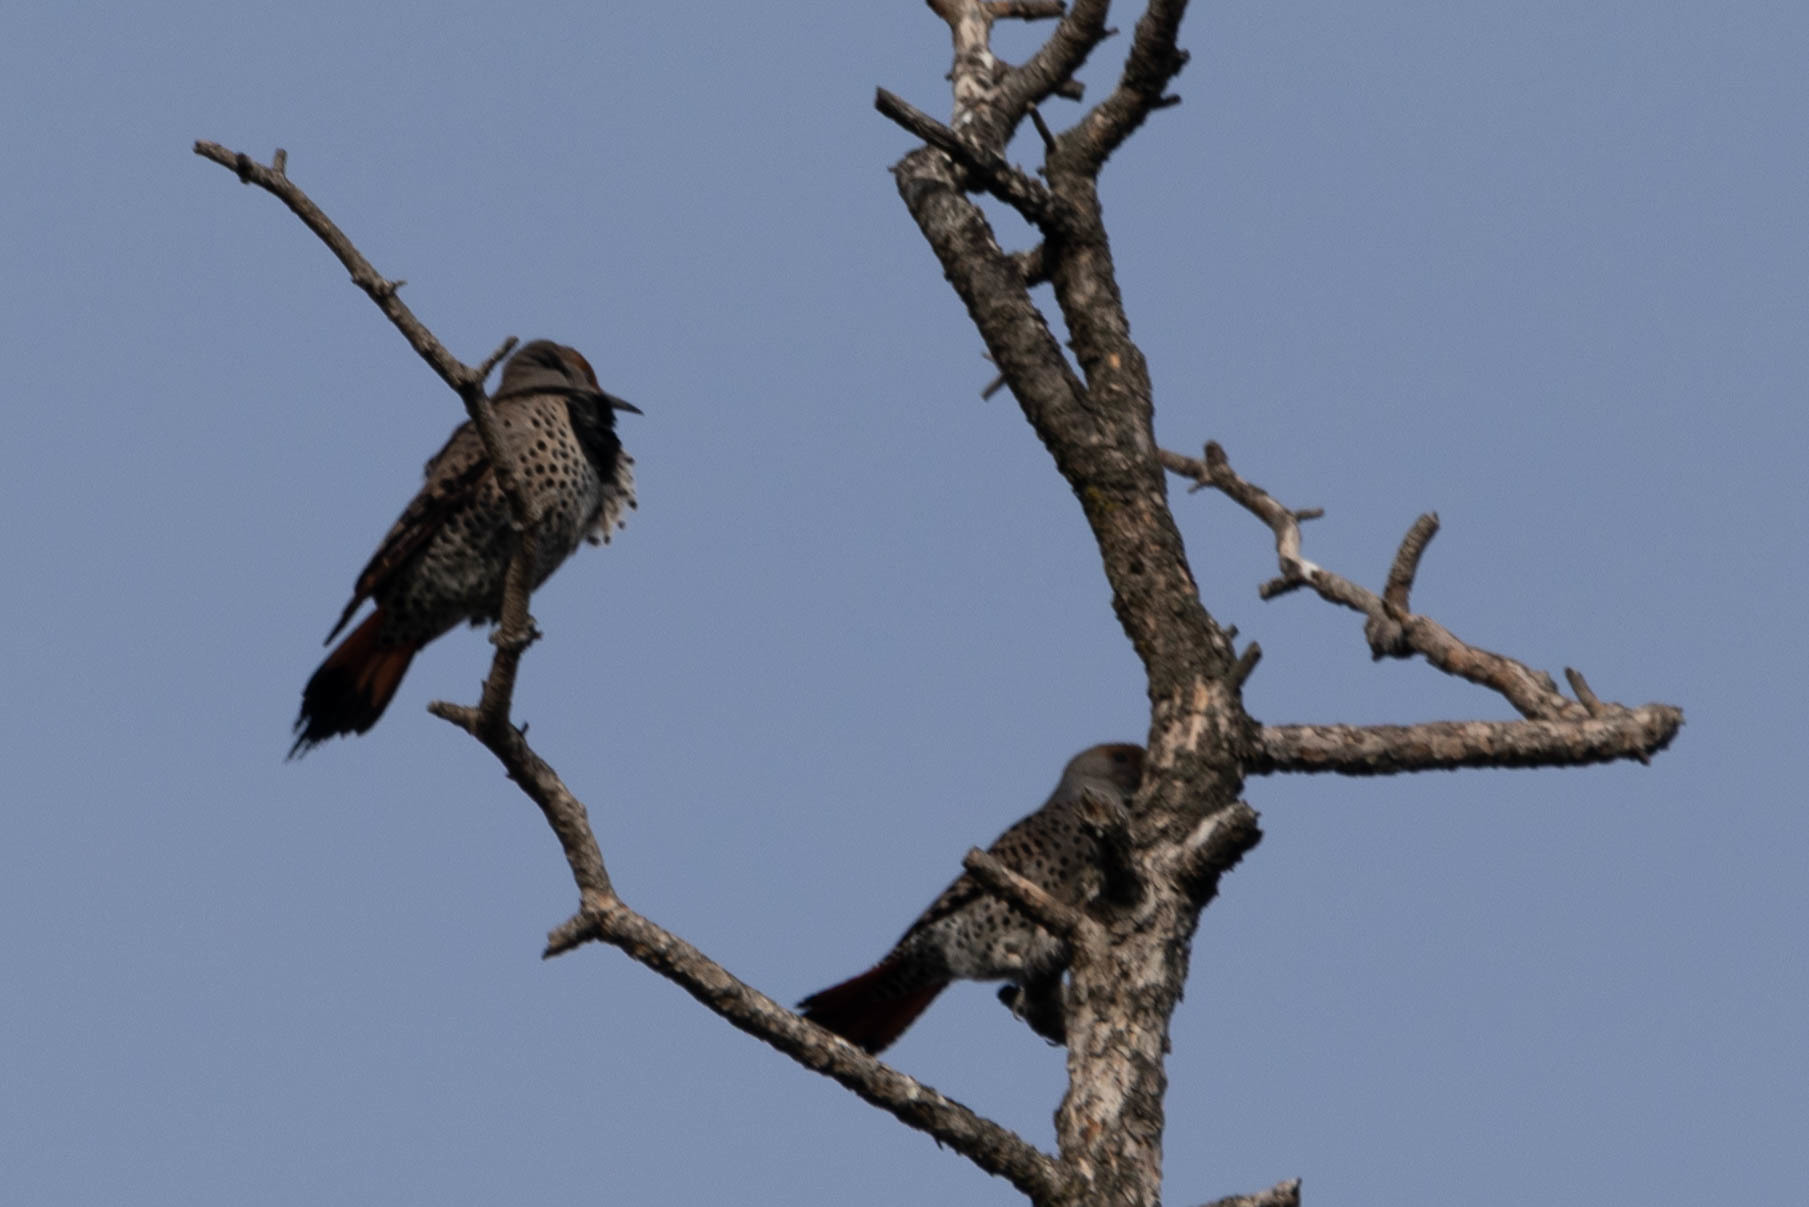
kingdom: Animalia
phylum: Chordata
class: Aves
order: Piciformes
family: Picidae
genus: Colaptes
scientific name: Colaptes auratus
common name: Northern flicker
